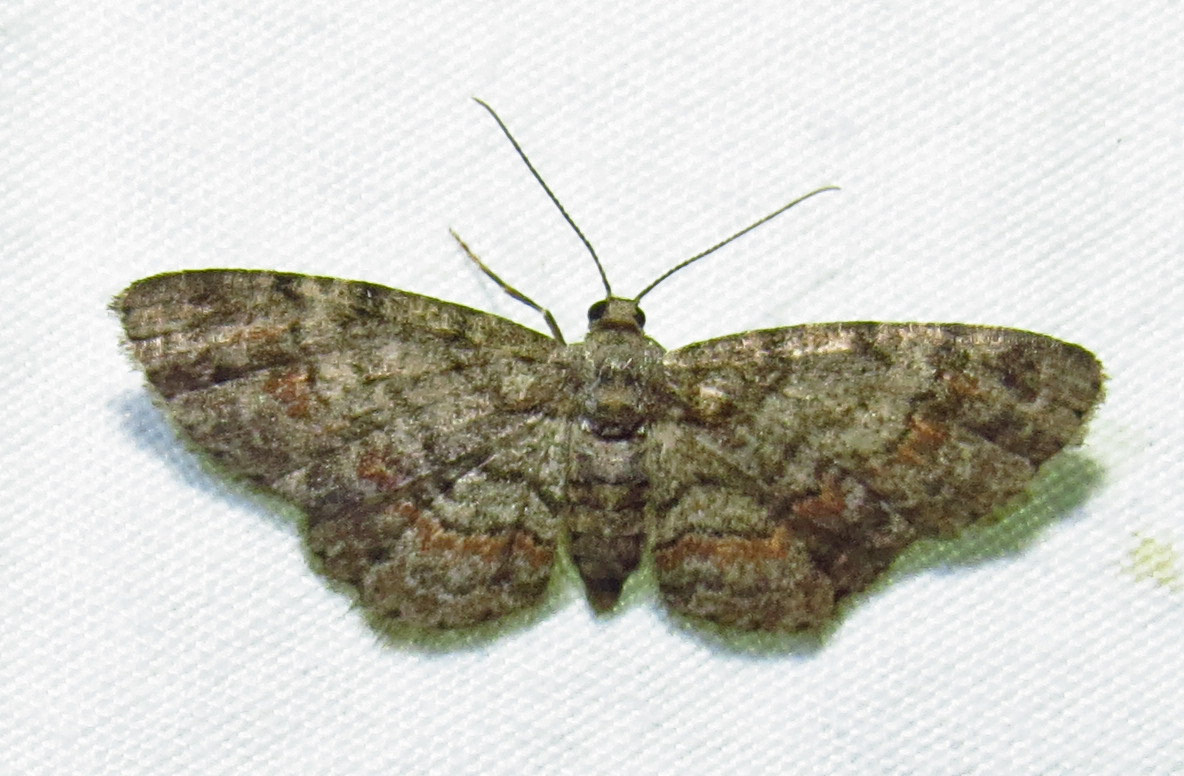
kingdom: Animalia
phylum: Arthropoda
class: Insecta
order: Lepidoptera
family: Geometridae
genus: Glenoides
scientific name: Glenoides texanaria
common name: Texas gray
